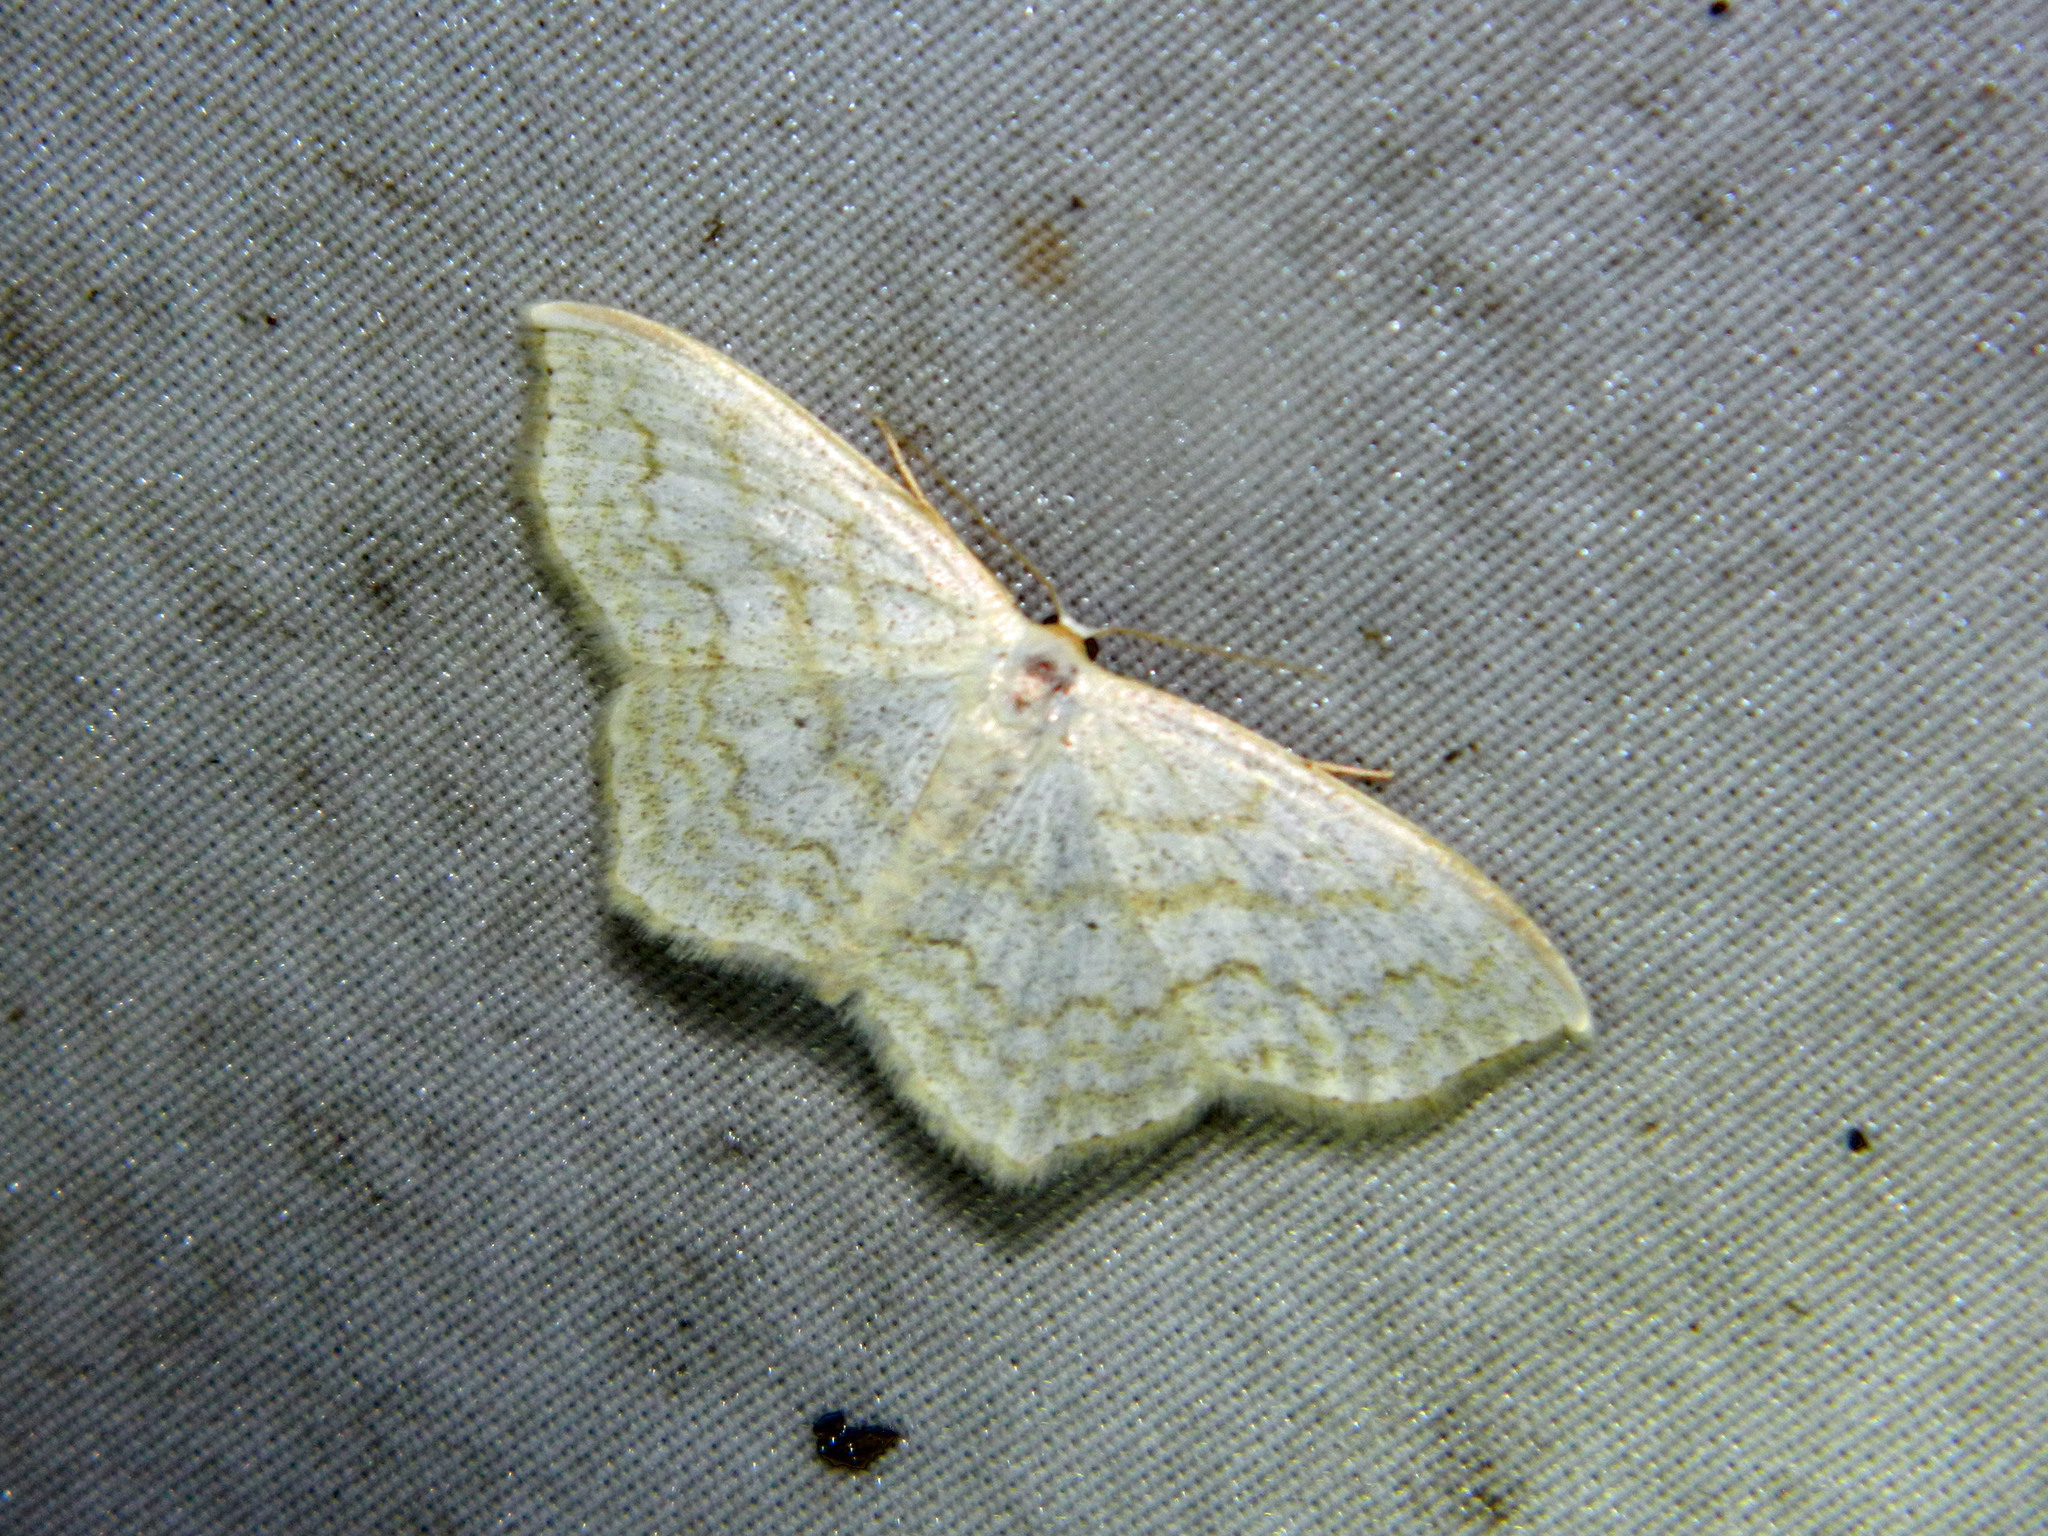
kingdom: Animalia
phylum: Arthropoda
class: Insecta
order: Lepidoptera
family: Geometridae
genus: Scopula
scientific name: Scopula limboundata
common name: Large lace border
